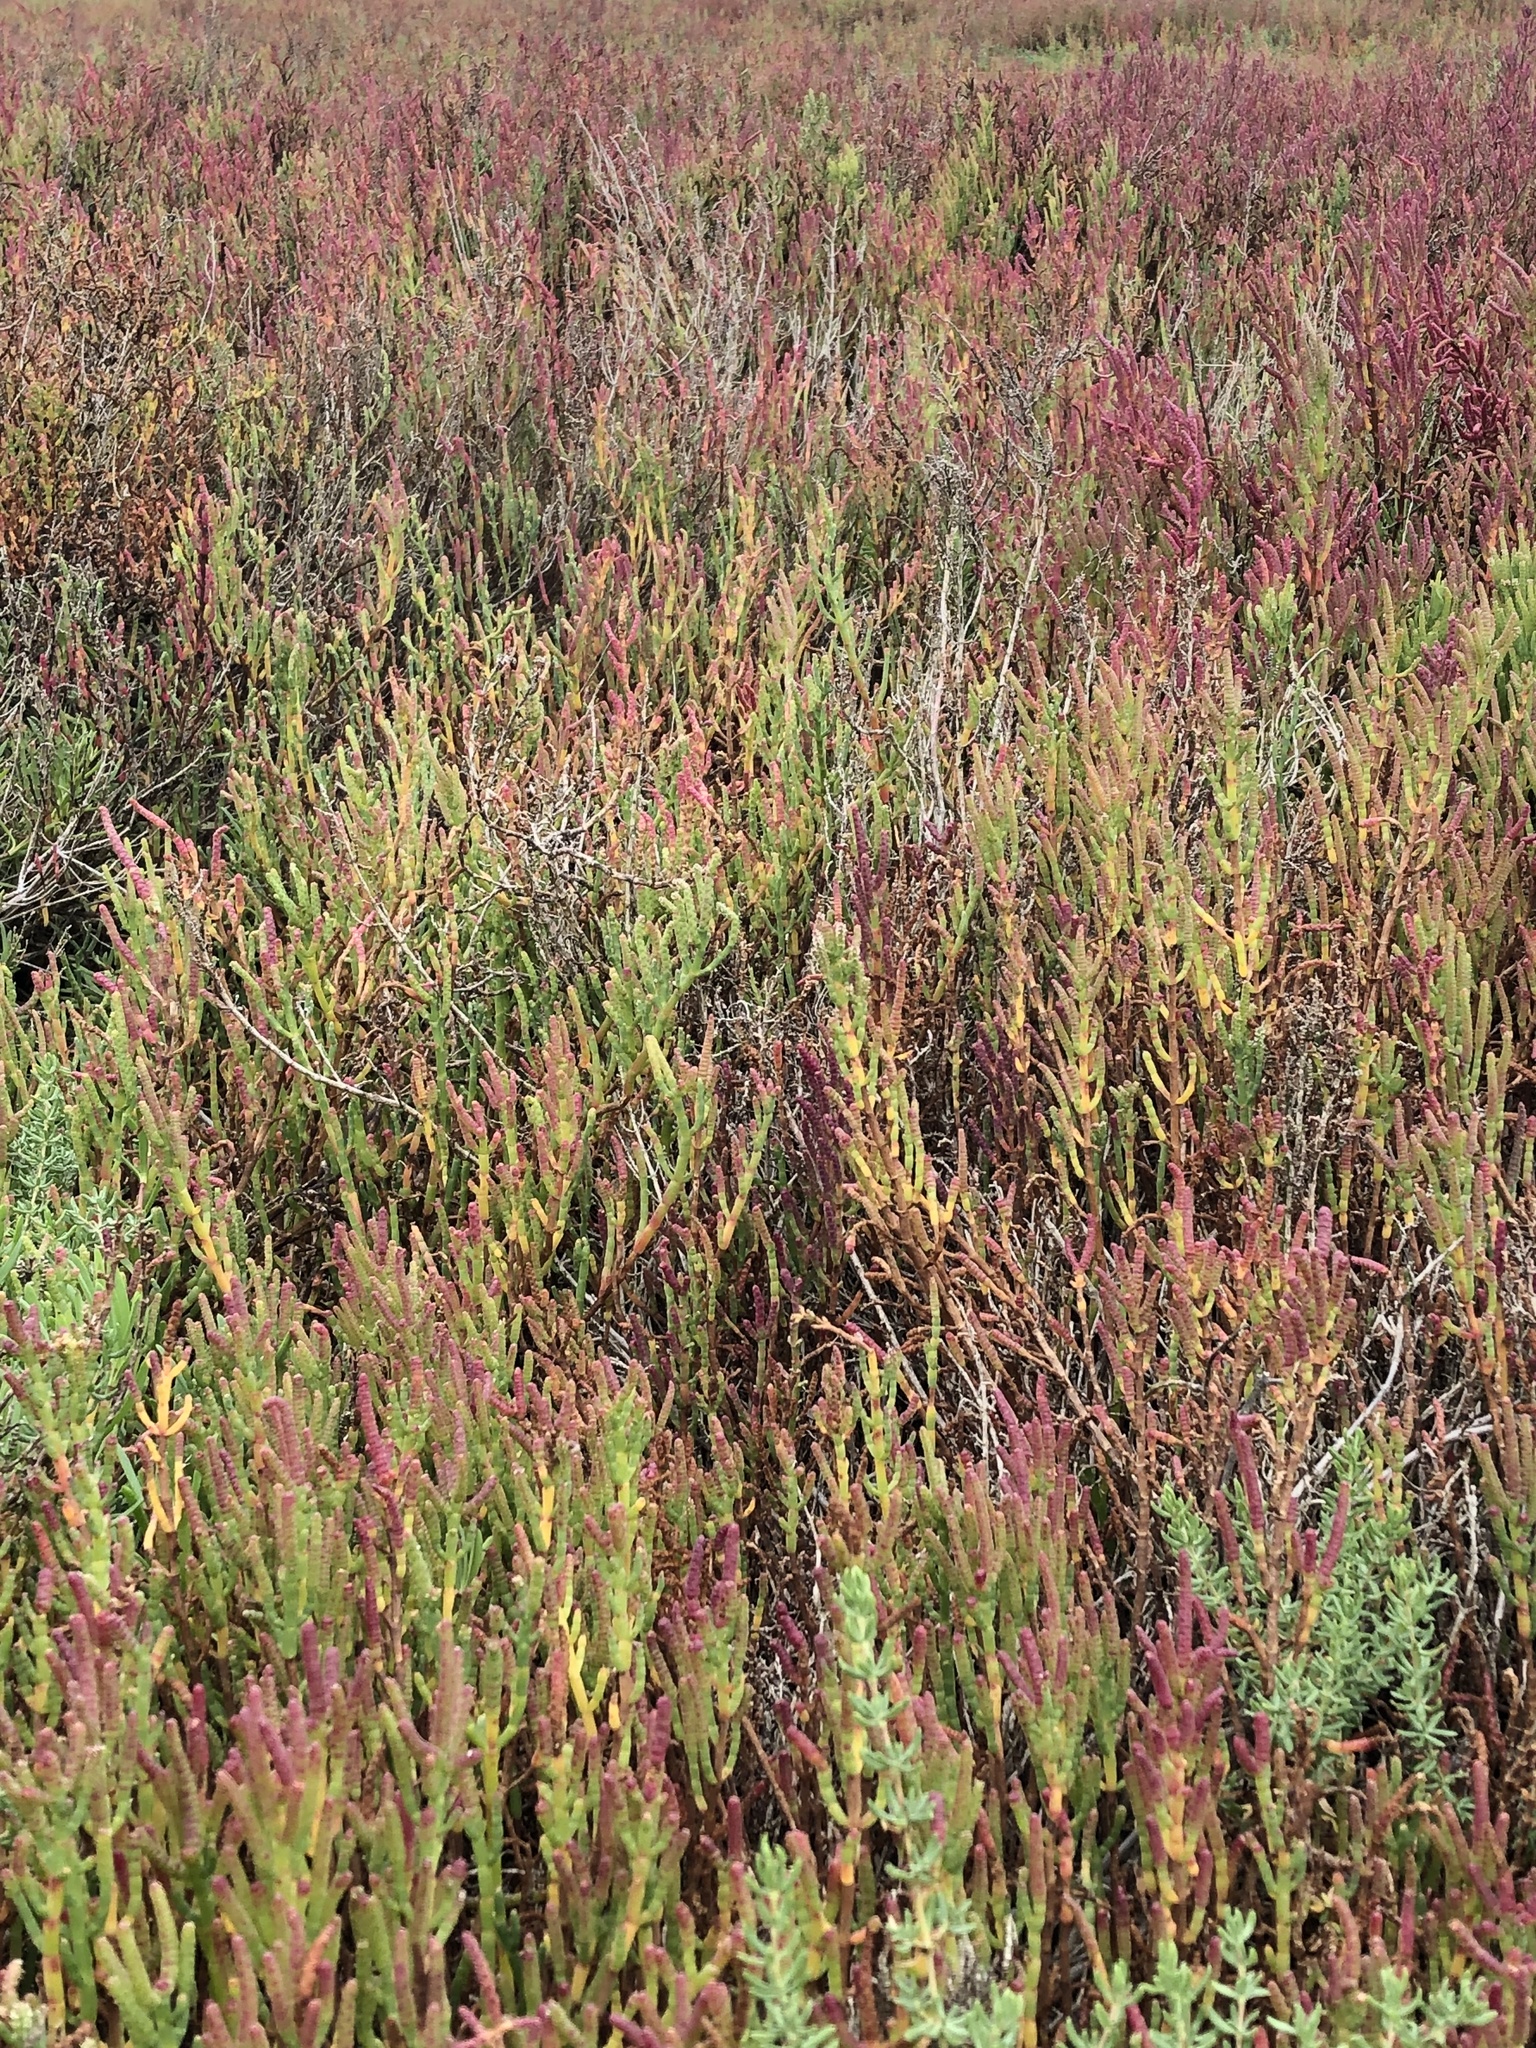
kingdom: Plantae
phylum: Tracheophyta
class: Magnoliopsida
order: Caryophyllales
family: Amaranthaceae
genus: Salicornia
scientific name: Salicornia pacifica
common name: Pacific glasswort
